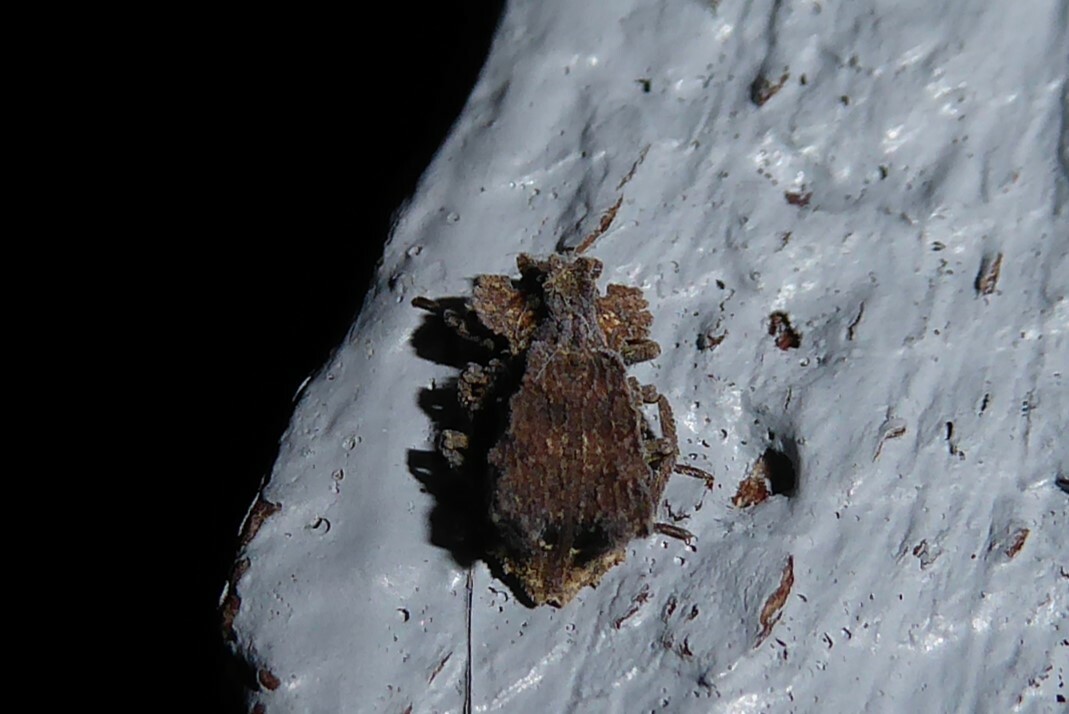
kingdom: Animalia
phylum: Arthropoda
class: Insecta
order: Coleoptera
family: Zopheridae
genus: Tarphiomimus
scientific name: Tarphiomimus
